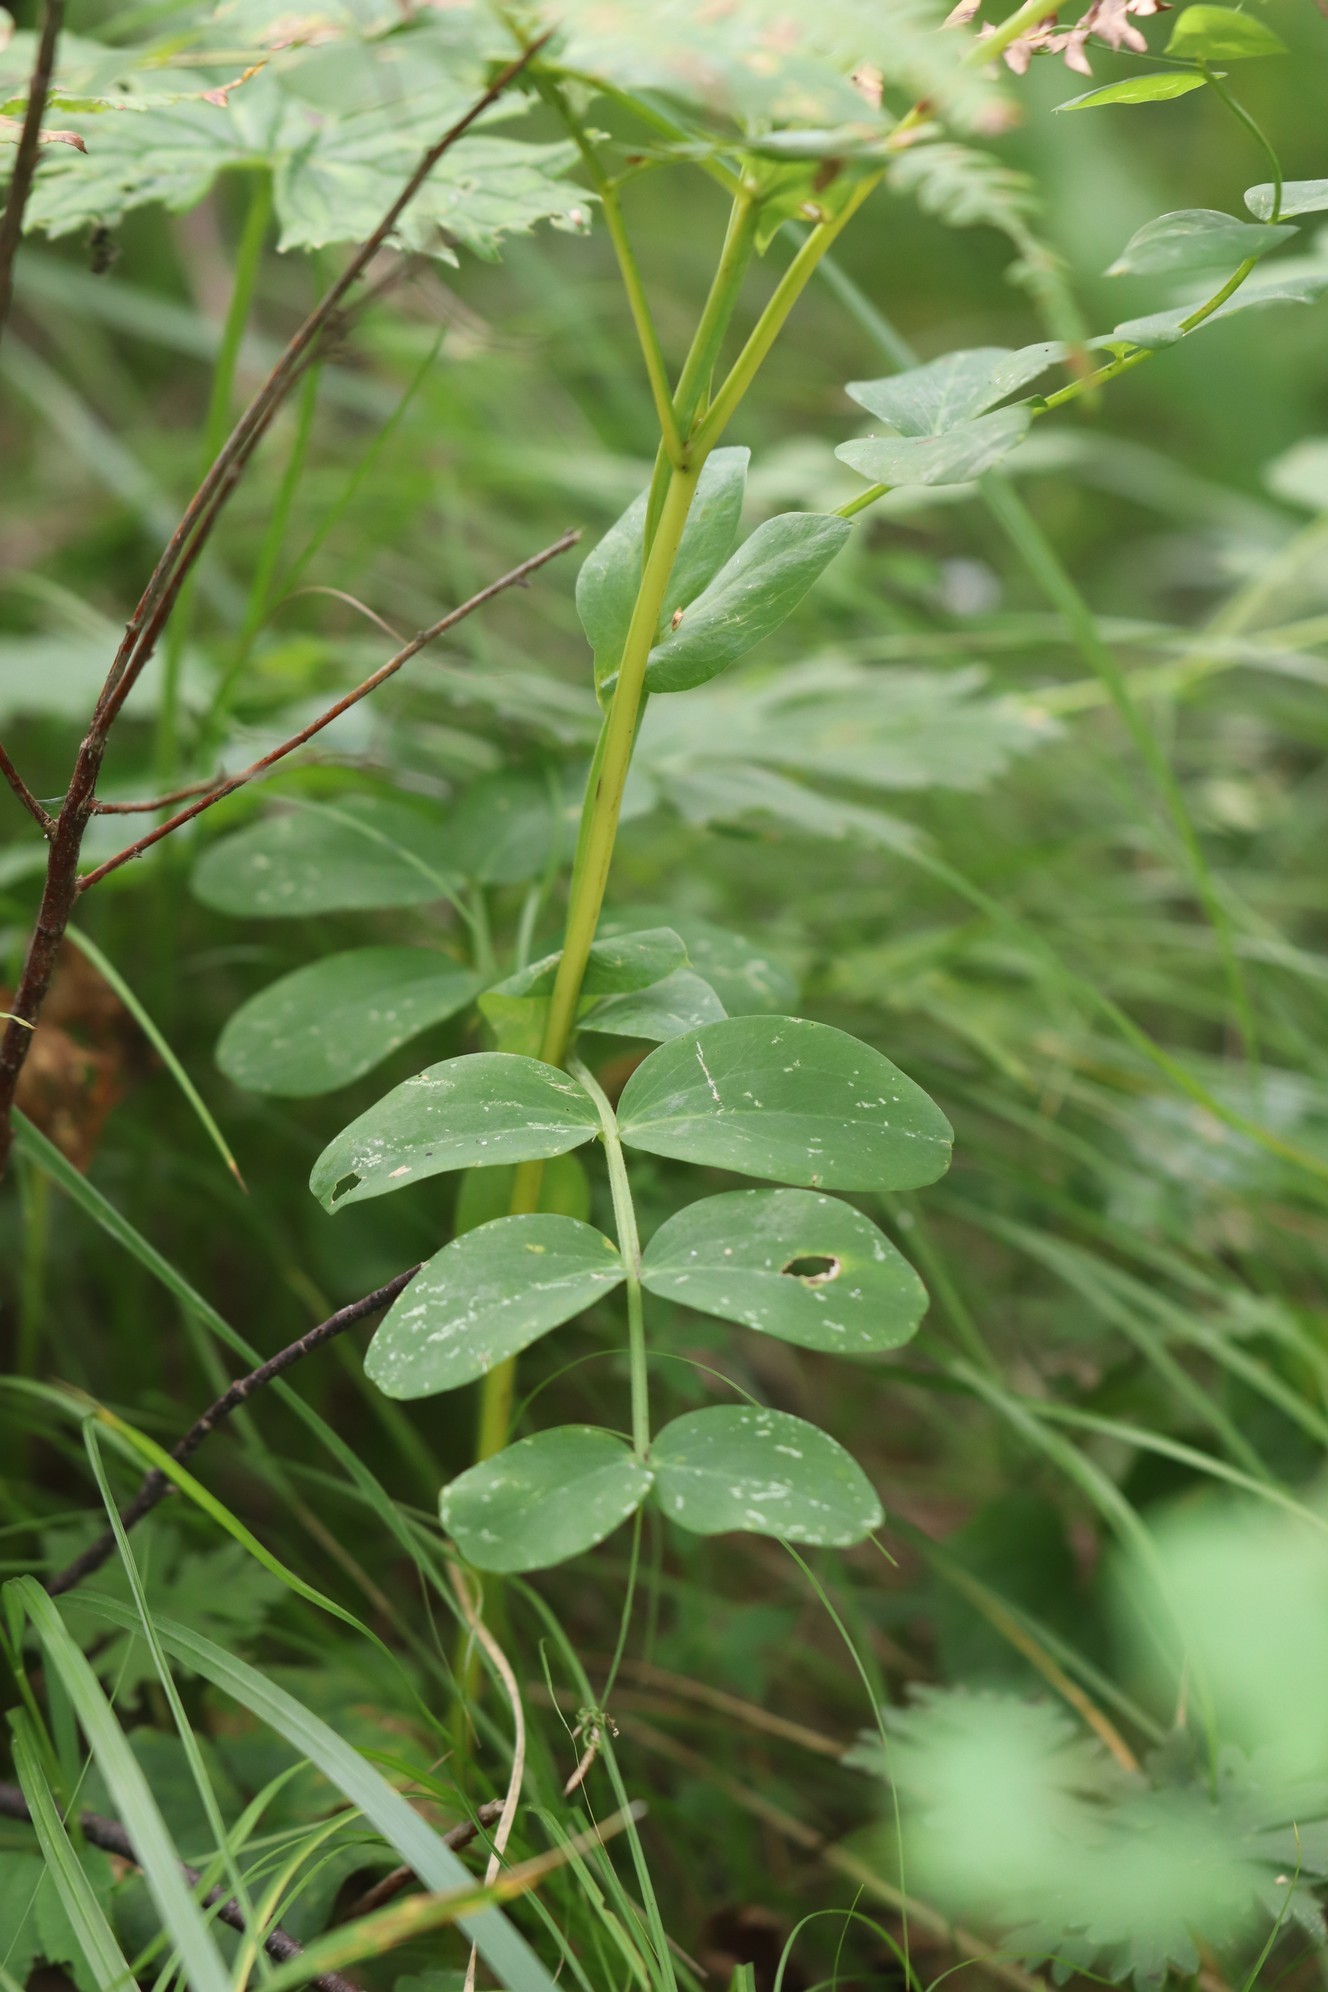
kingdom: Plantae
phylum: Tracheophyta
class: Magnoliopsida
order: Fabales
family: Fabaceae
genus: Lathyrus
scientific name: Lathyrus pisiformis
